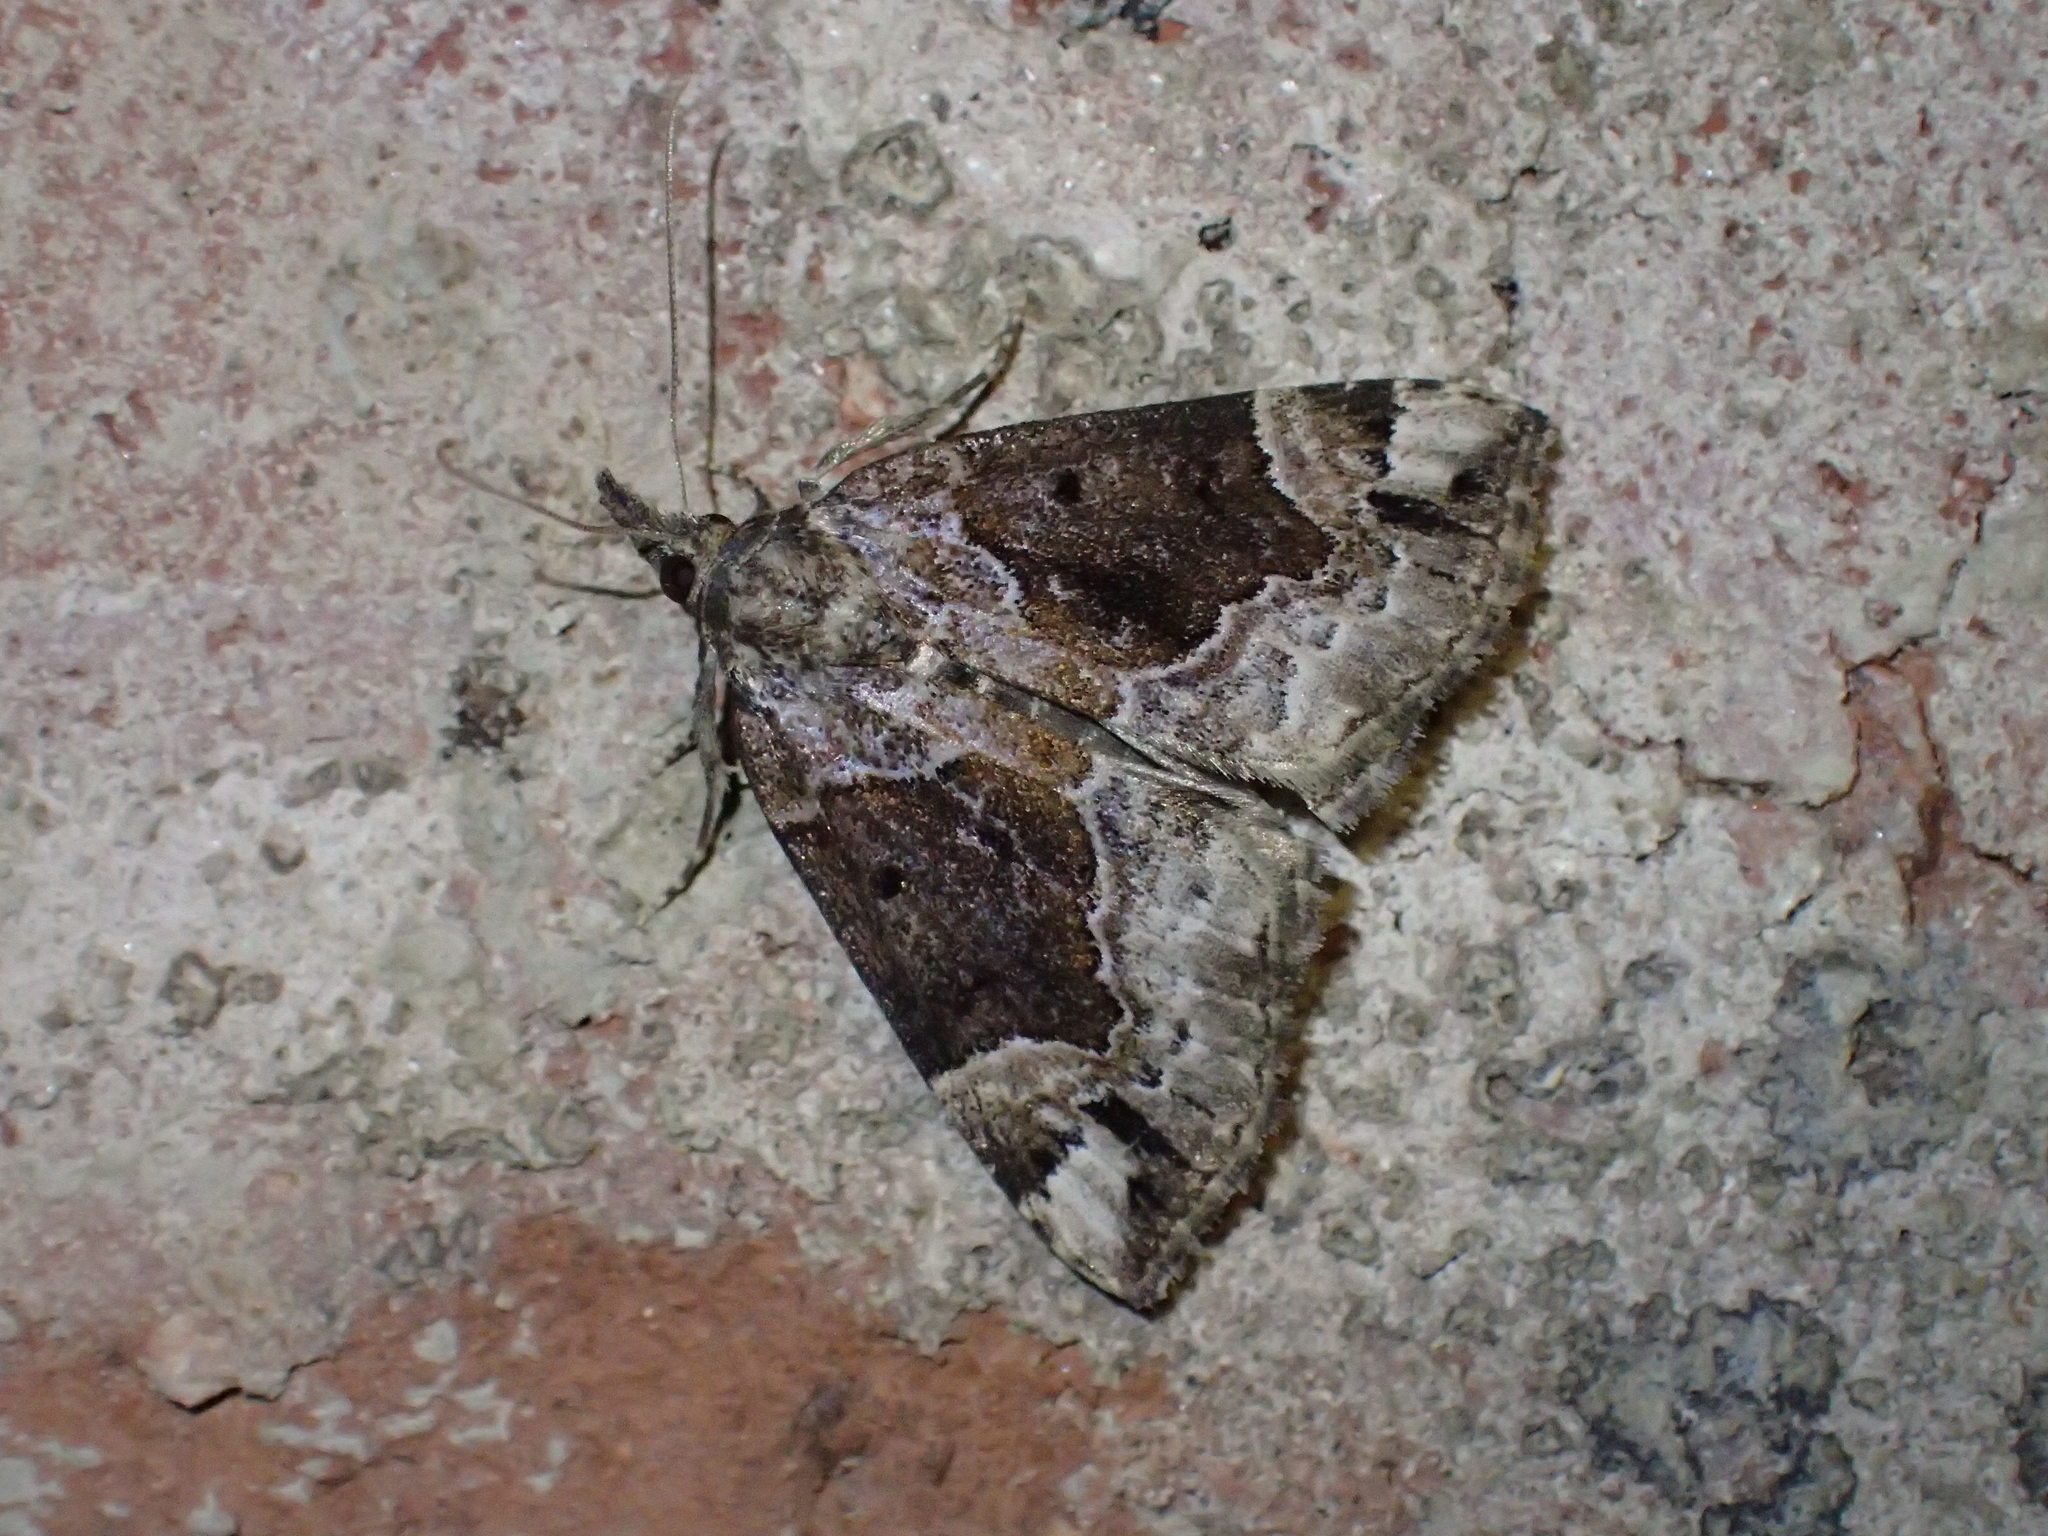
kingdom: Animalia
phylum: Arthropoda
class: Insecta
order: Lepidoptera
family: Erebidae
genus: Hypena
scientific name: Hypena palparia
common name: Mottled bomolocha moth
